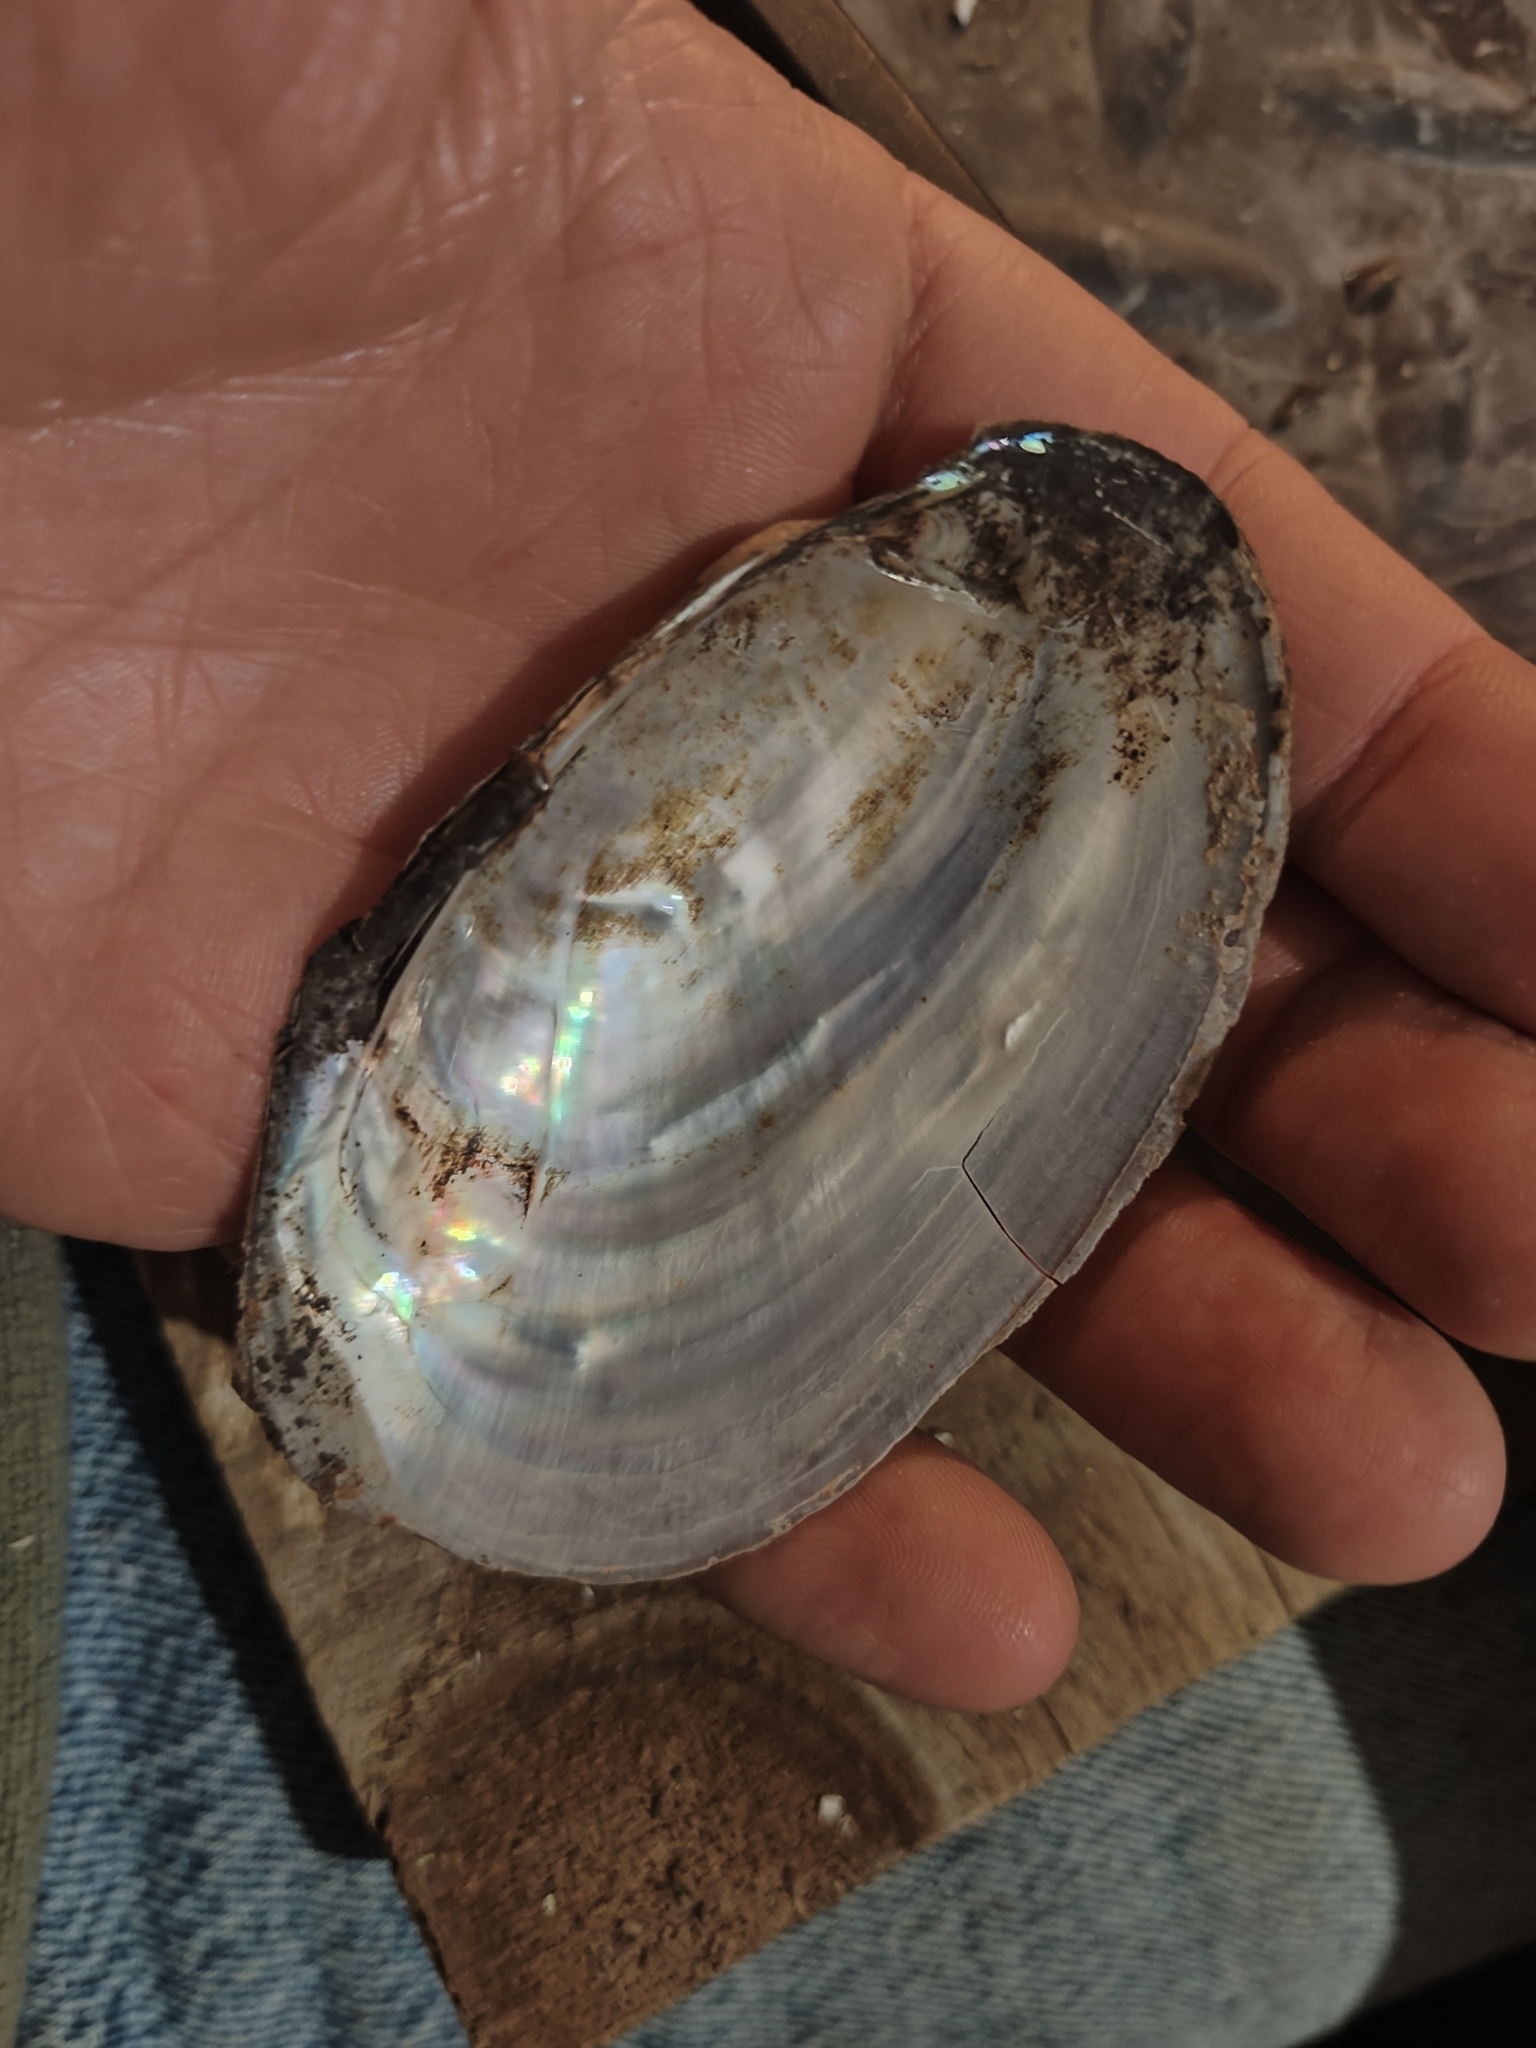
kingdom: Animalia
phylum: Mollusca
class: Bivalvia
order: Unionida
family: Unionidae
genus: Potamilus
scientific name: Potamilus fragilis
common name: Fragile papershell
